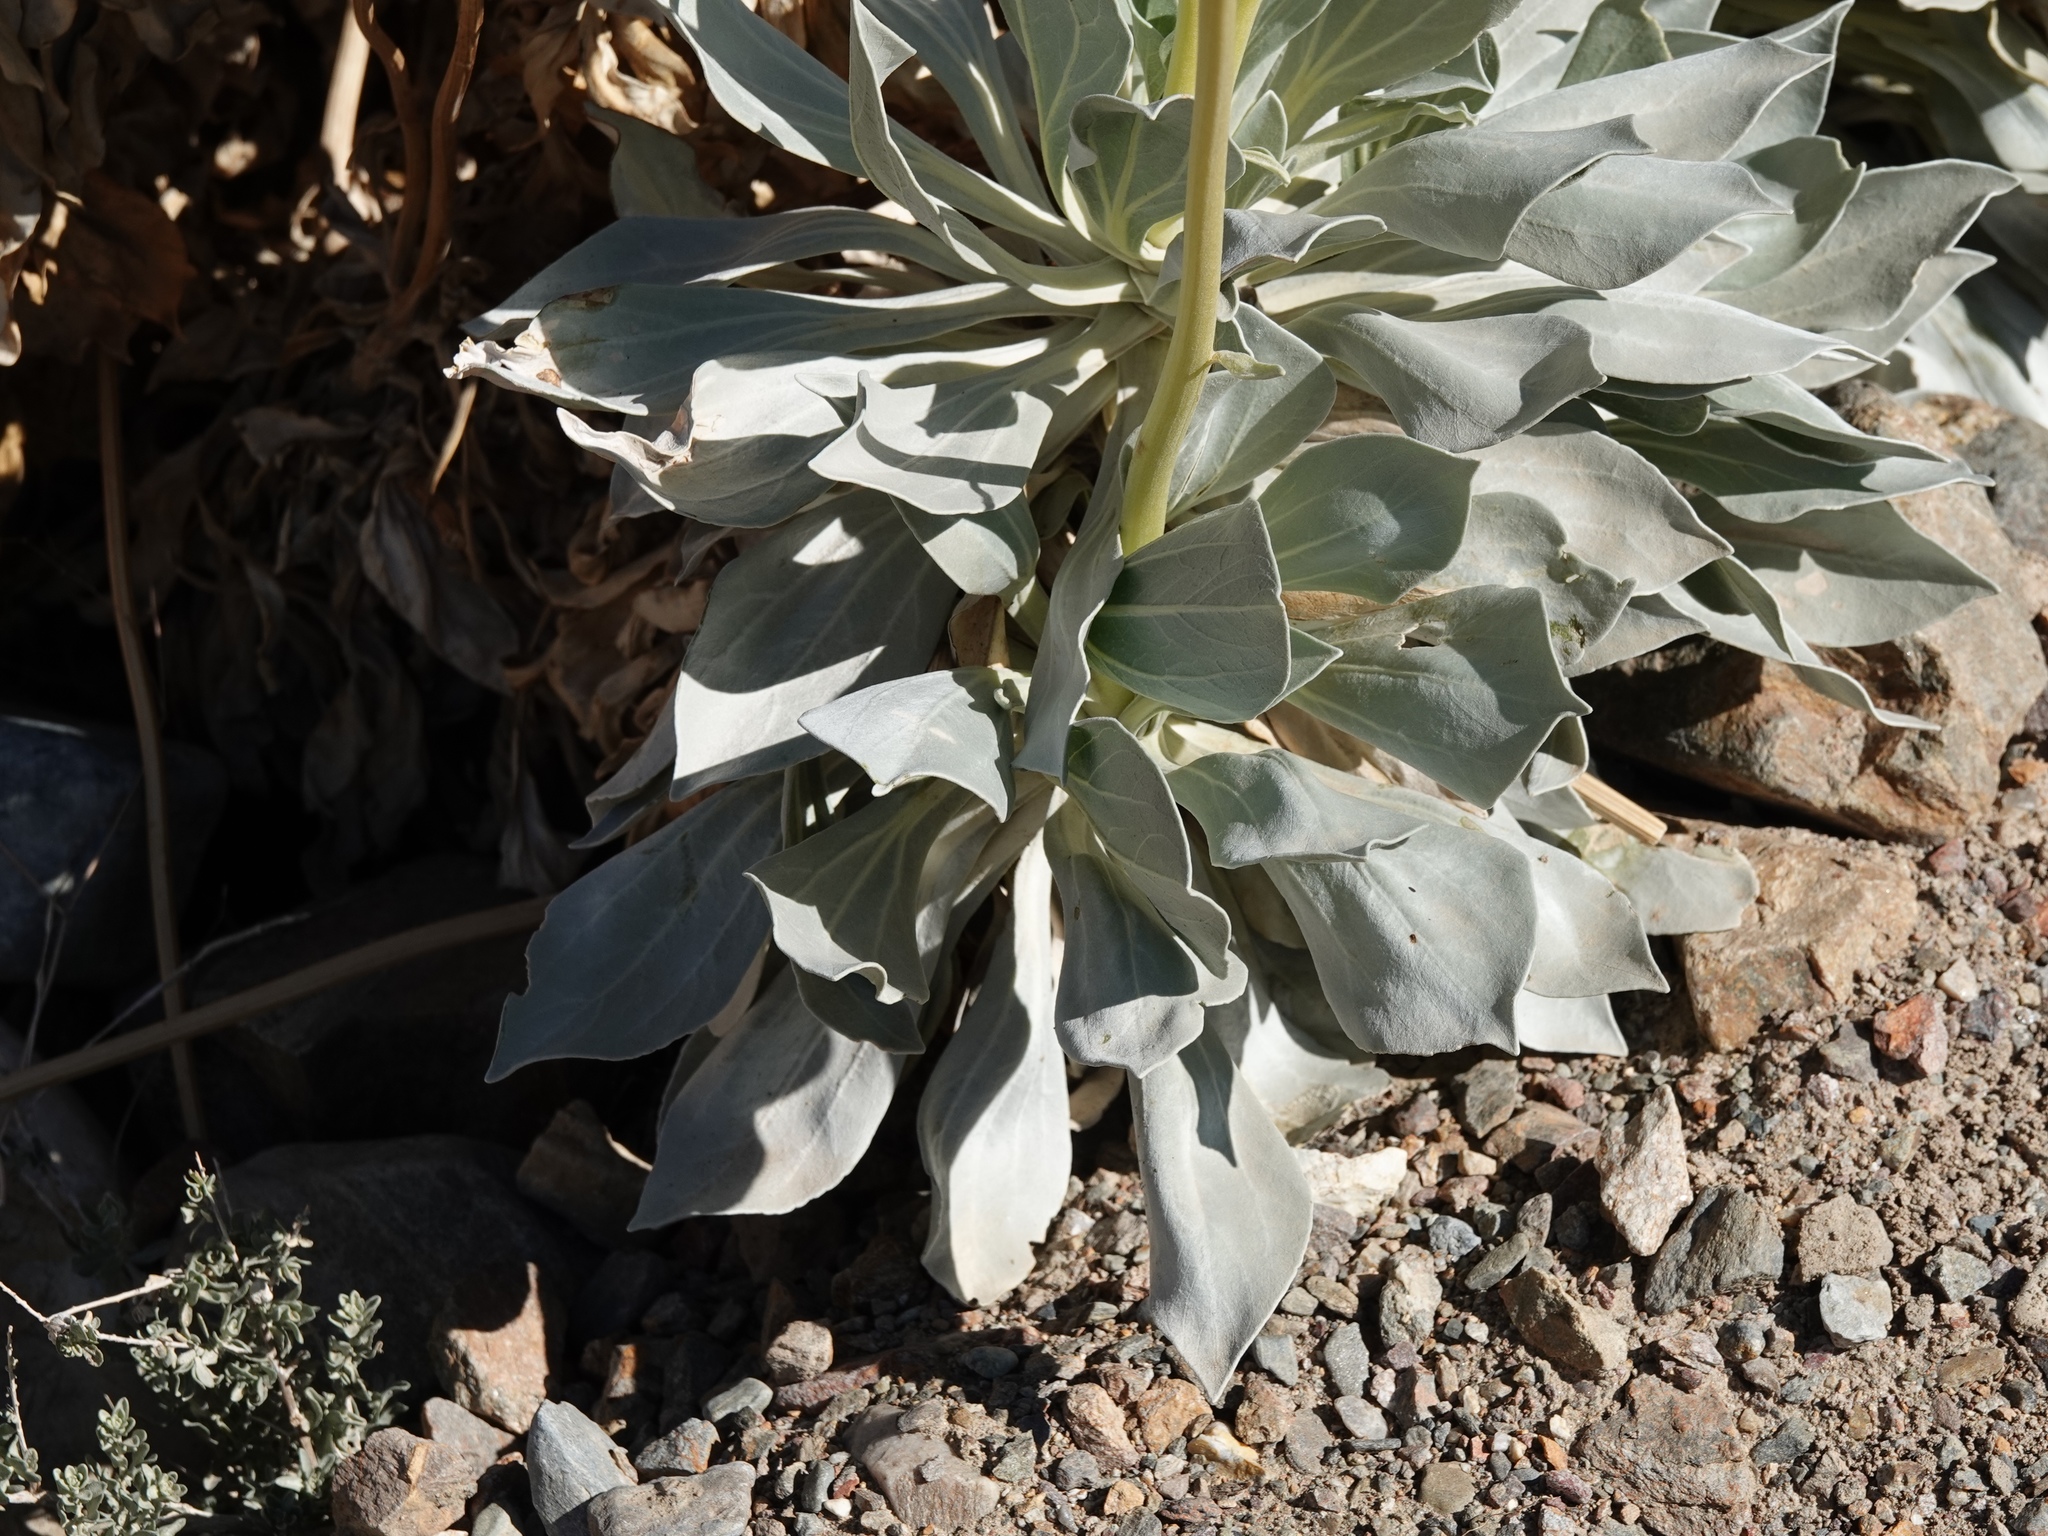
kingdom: Plantae
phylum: Tracheophyta
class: Magnoliopsida
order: Asterales
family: Asteraceae
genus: Enceliopsis
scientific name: Enceliopsis covillei
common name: Panamint daisy
